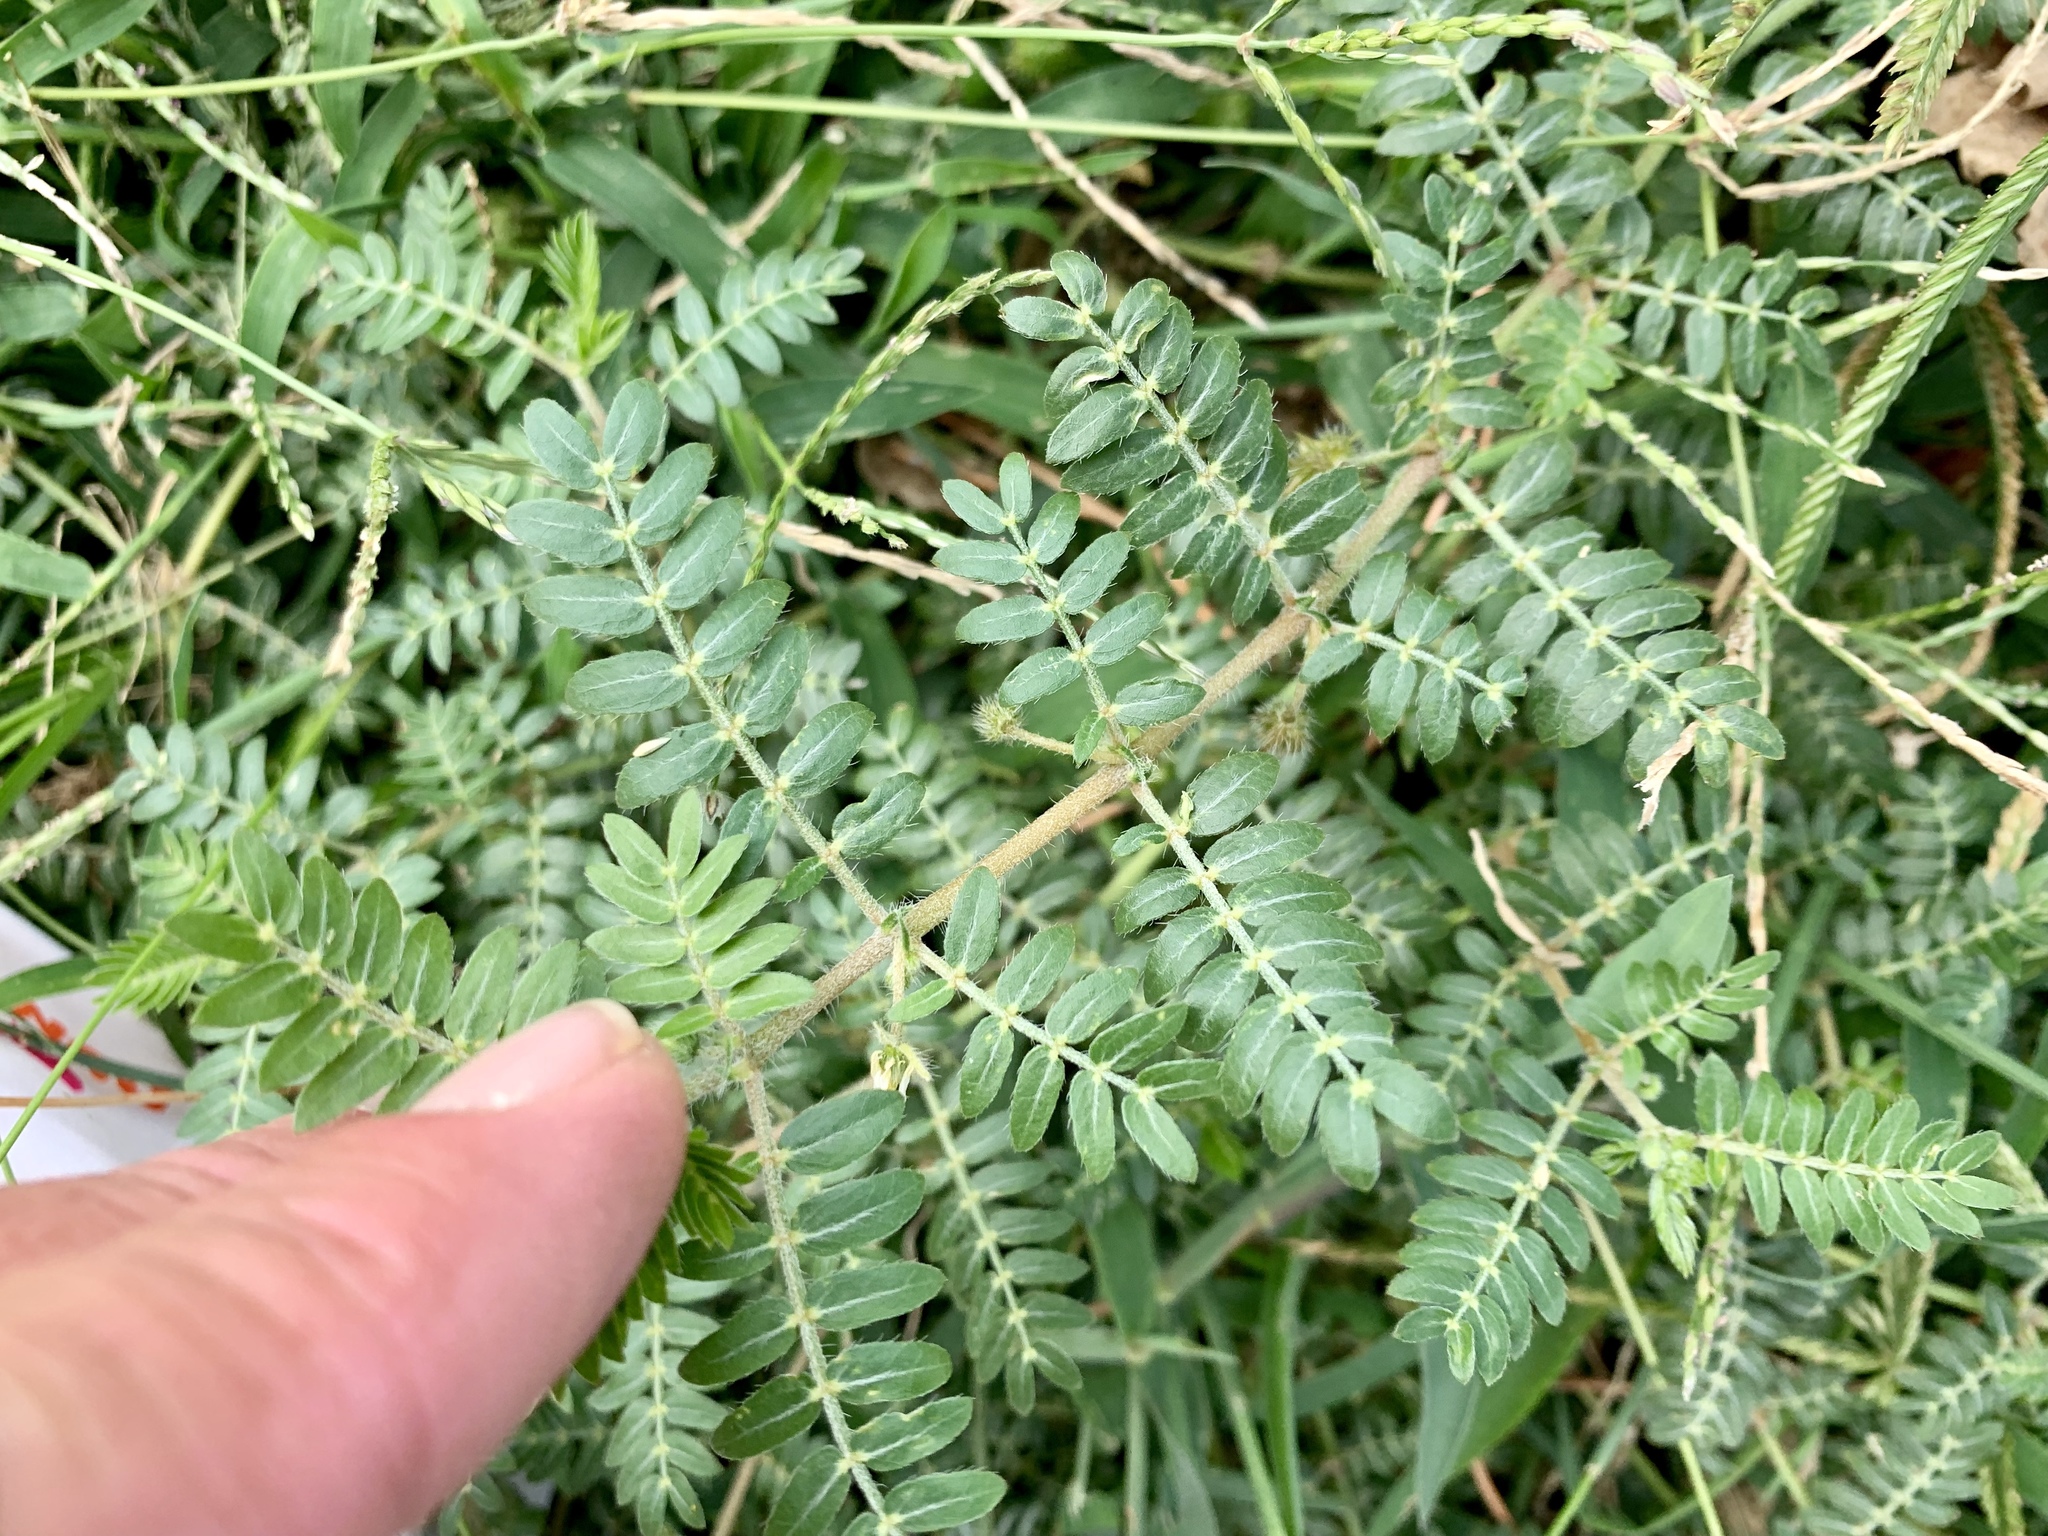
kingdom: Plantae
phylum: Tracheophyta
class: Magnoliopsida
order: Zygophyllales
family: Zygophyllaceae
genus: Tribulus
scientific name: Tribulus terrestris
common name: Puncturevine
